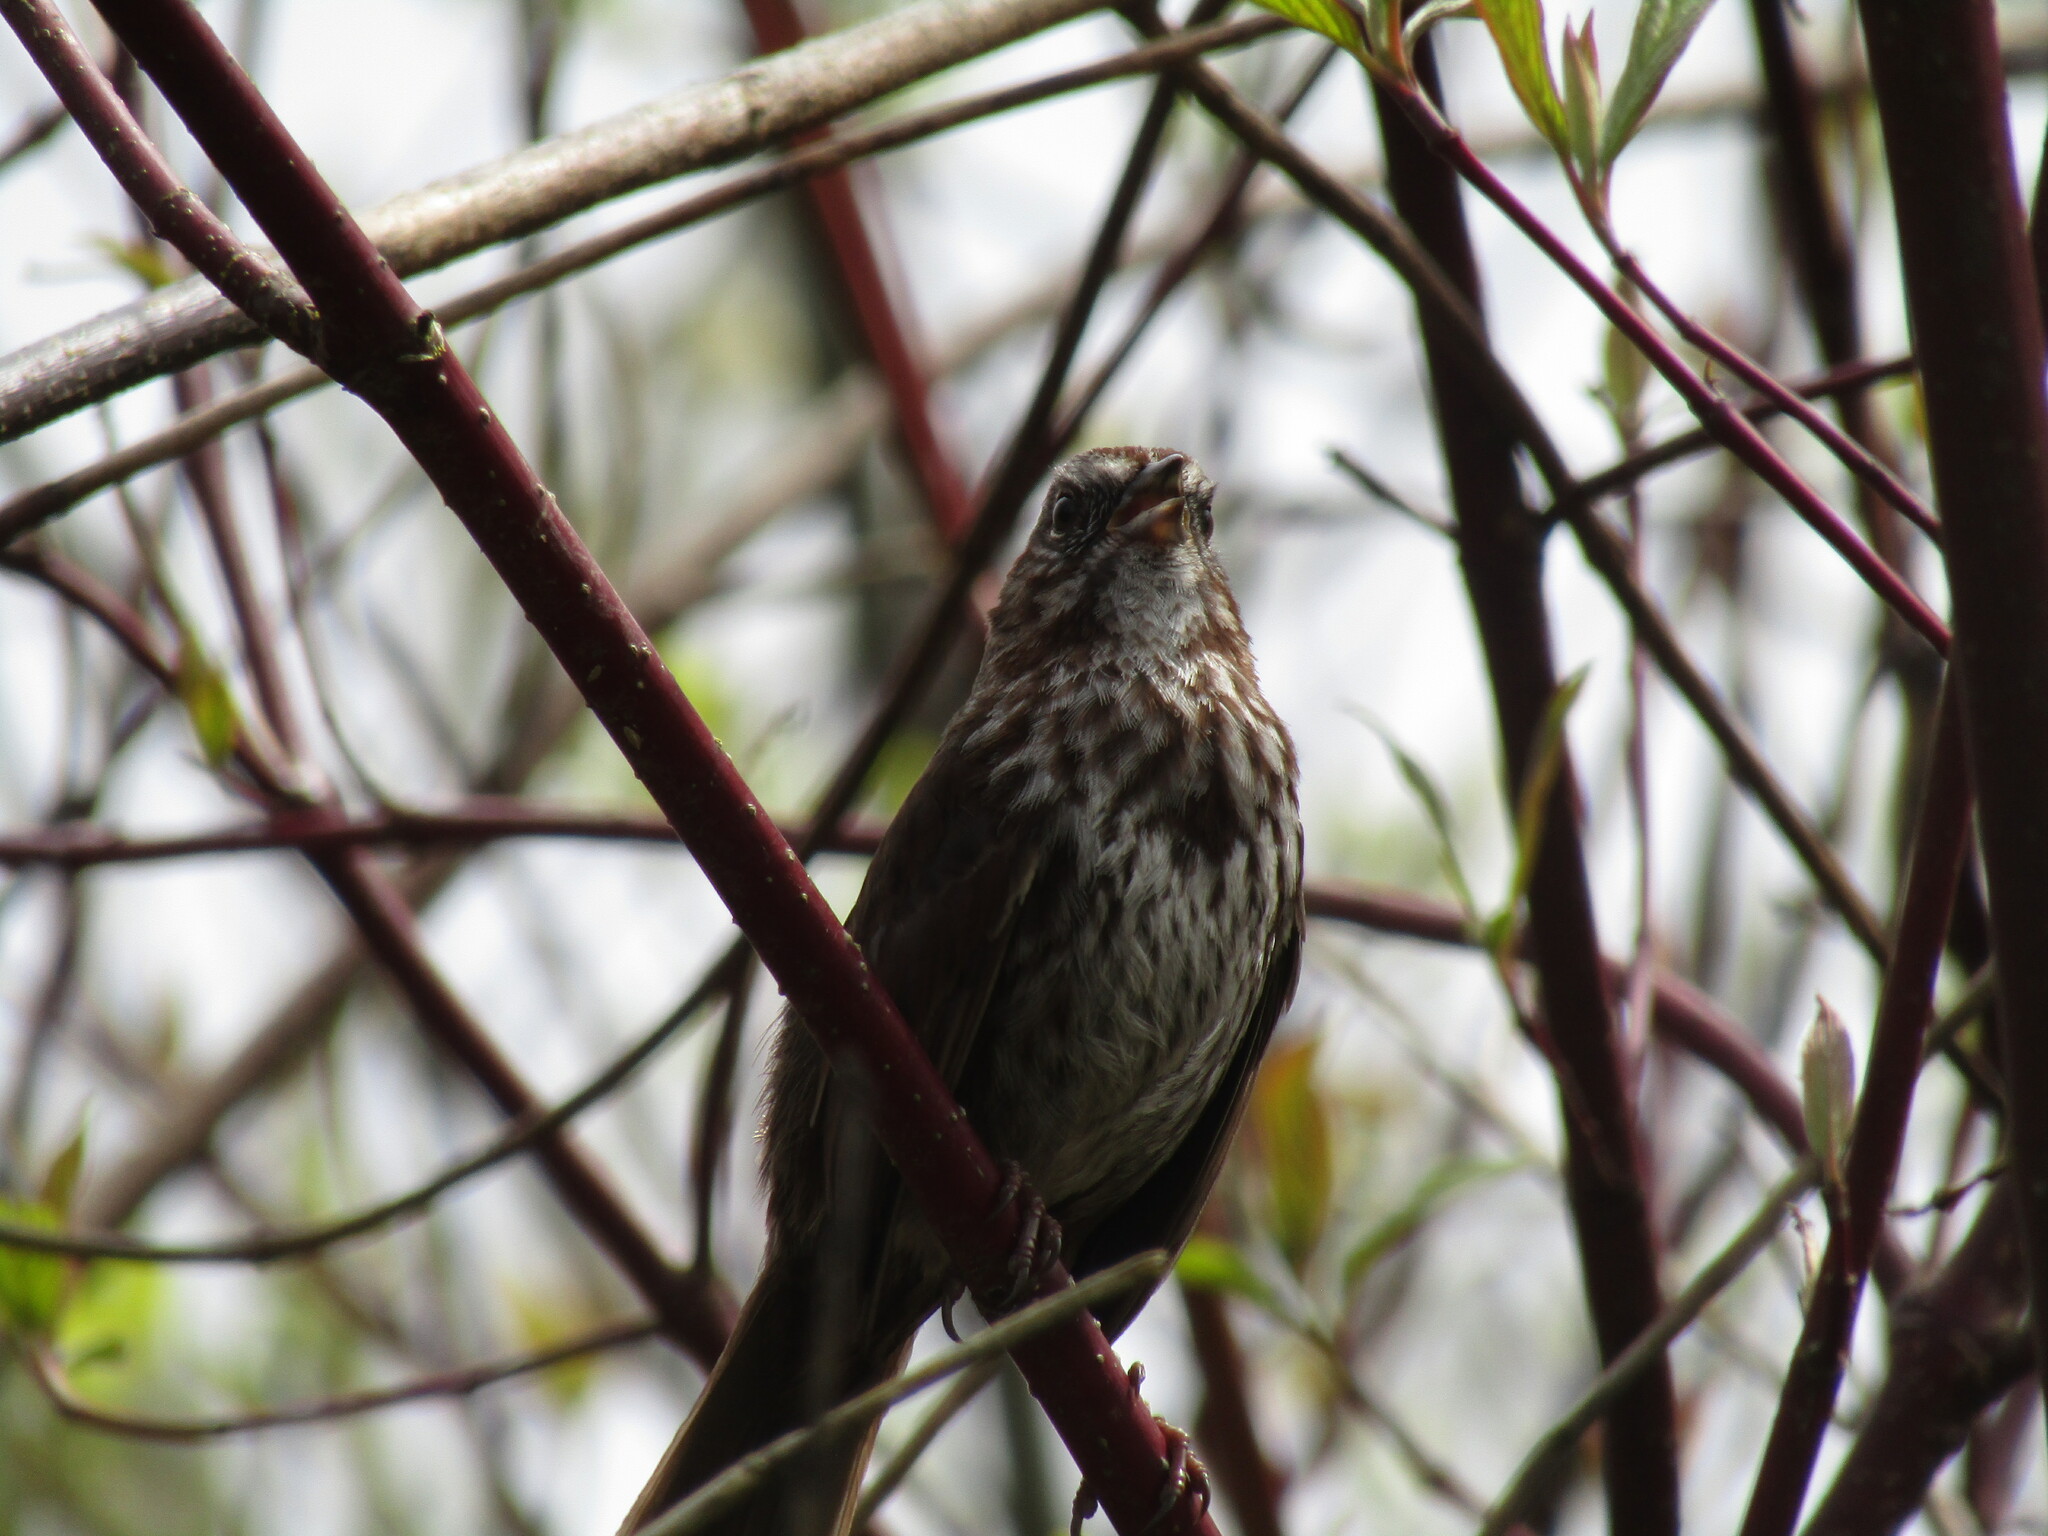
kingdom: Animalia
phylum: Chordata
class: Aves
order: Passeriformes
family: Passerellidae
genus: Melospiza
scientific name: Melospiza melodia
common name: Song sparrow
